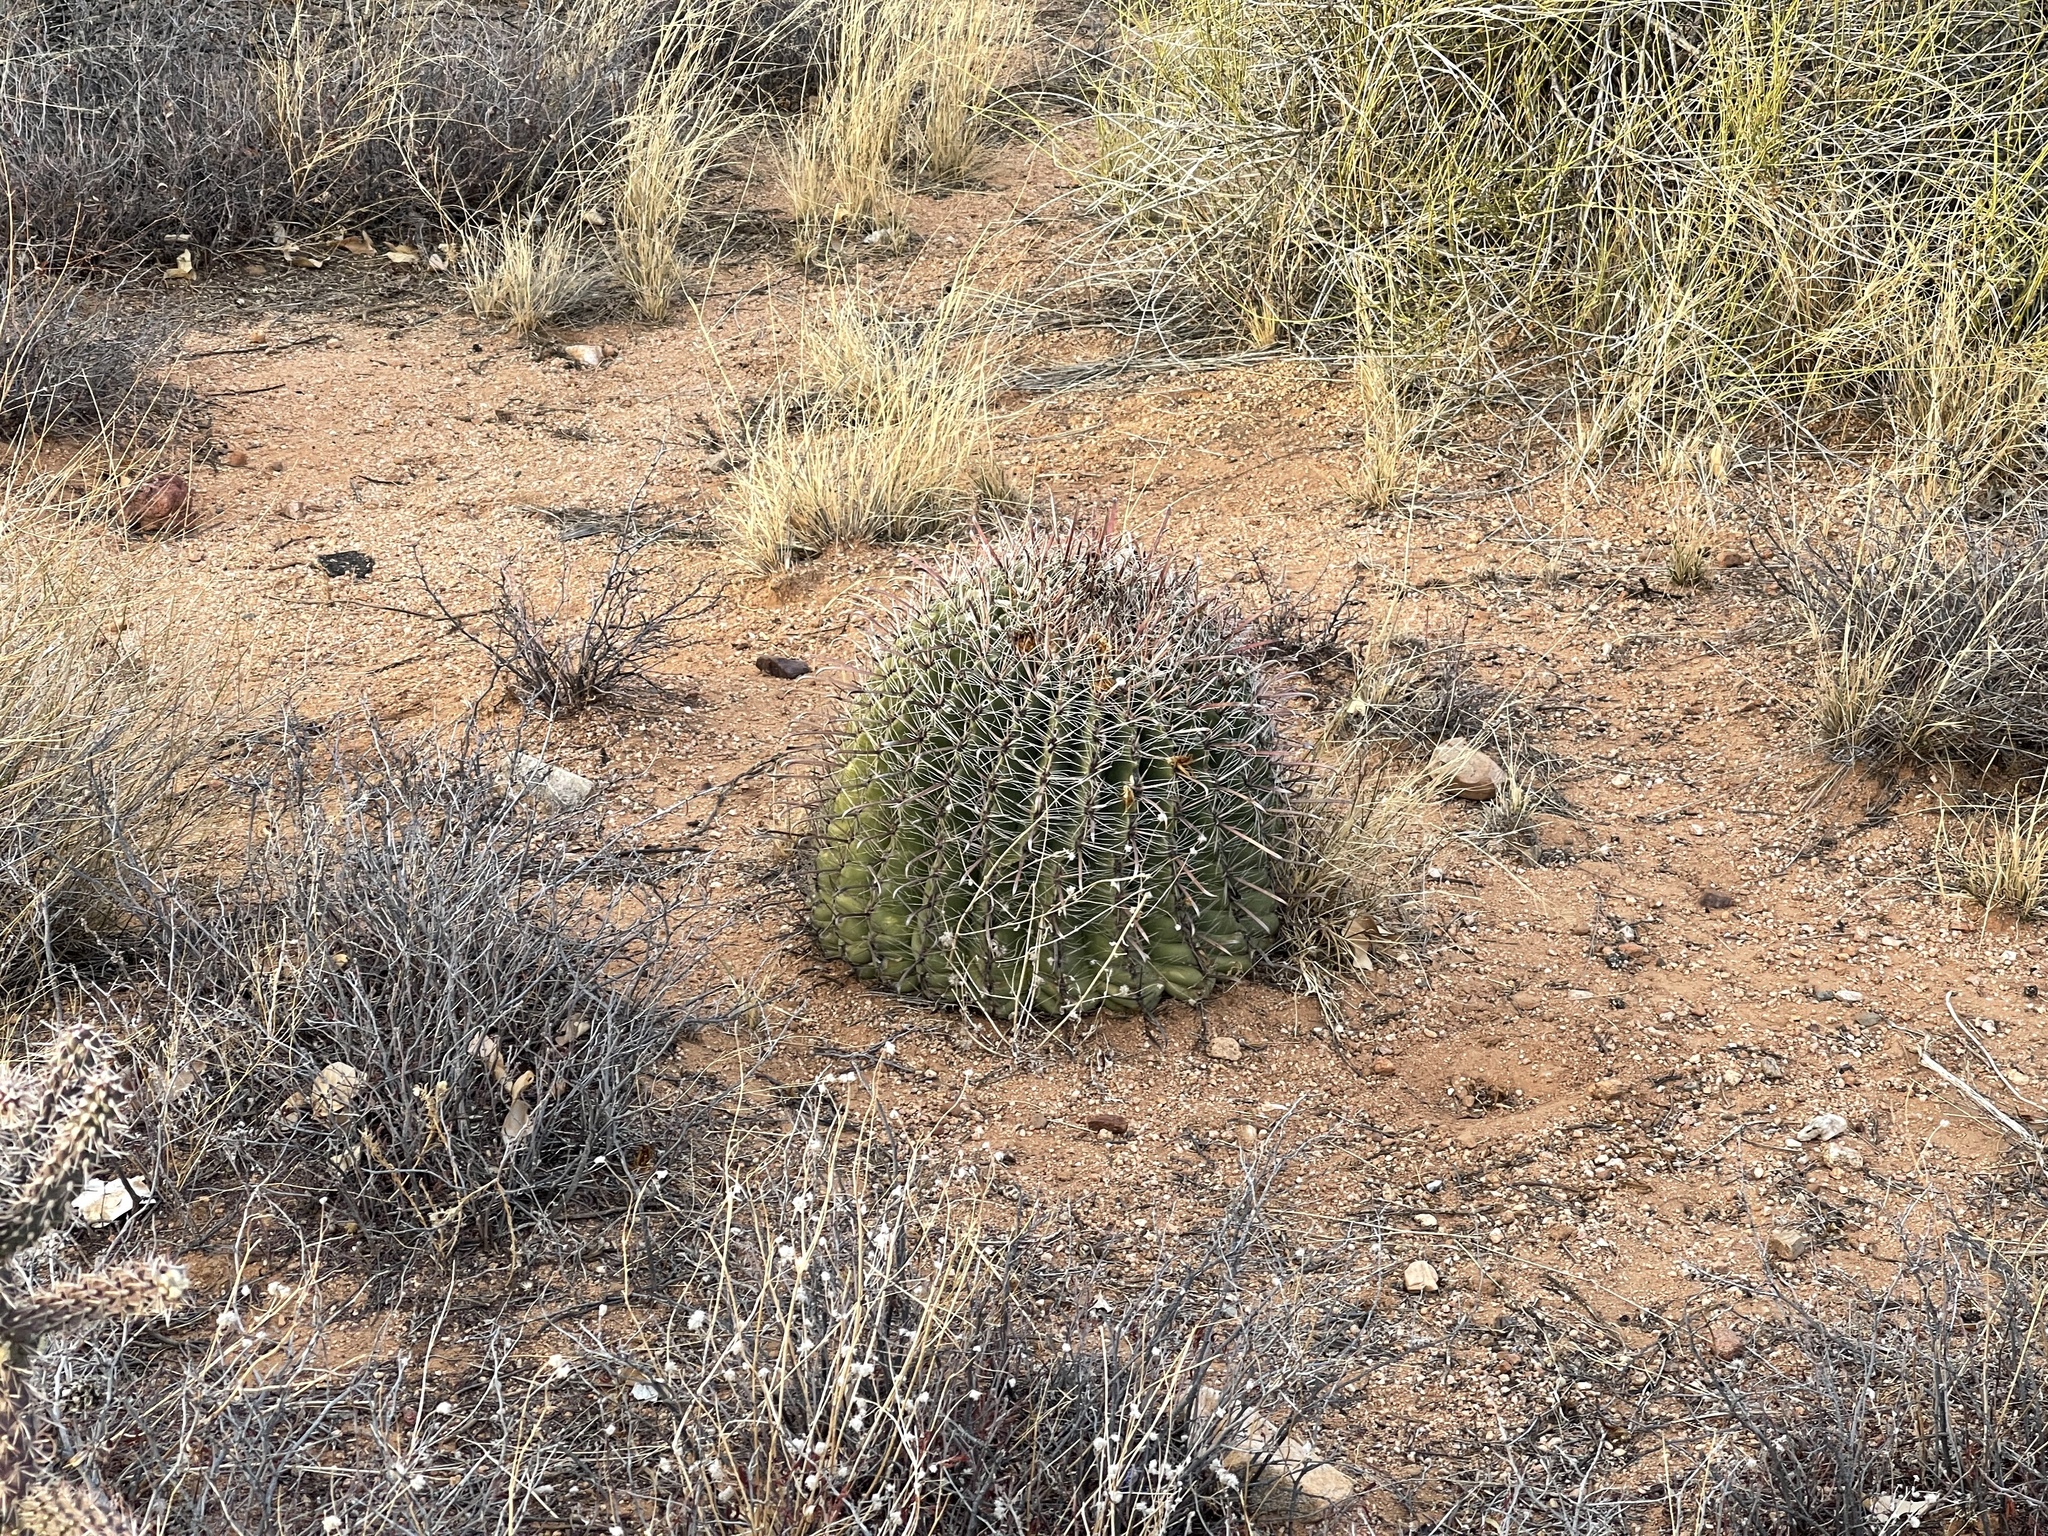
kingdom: Plantae
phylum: Tracheophyta
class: Magnoliopsida
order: Caryophyllales
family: Cactaceae
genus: Ferocactus
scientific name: Ferocactus wislizeni
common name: Candy barrel cactus
